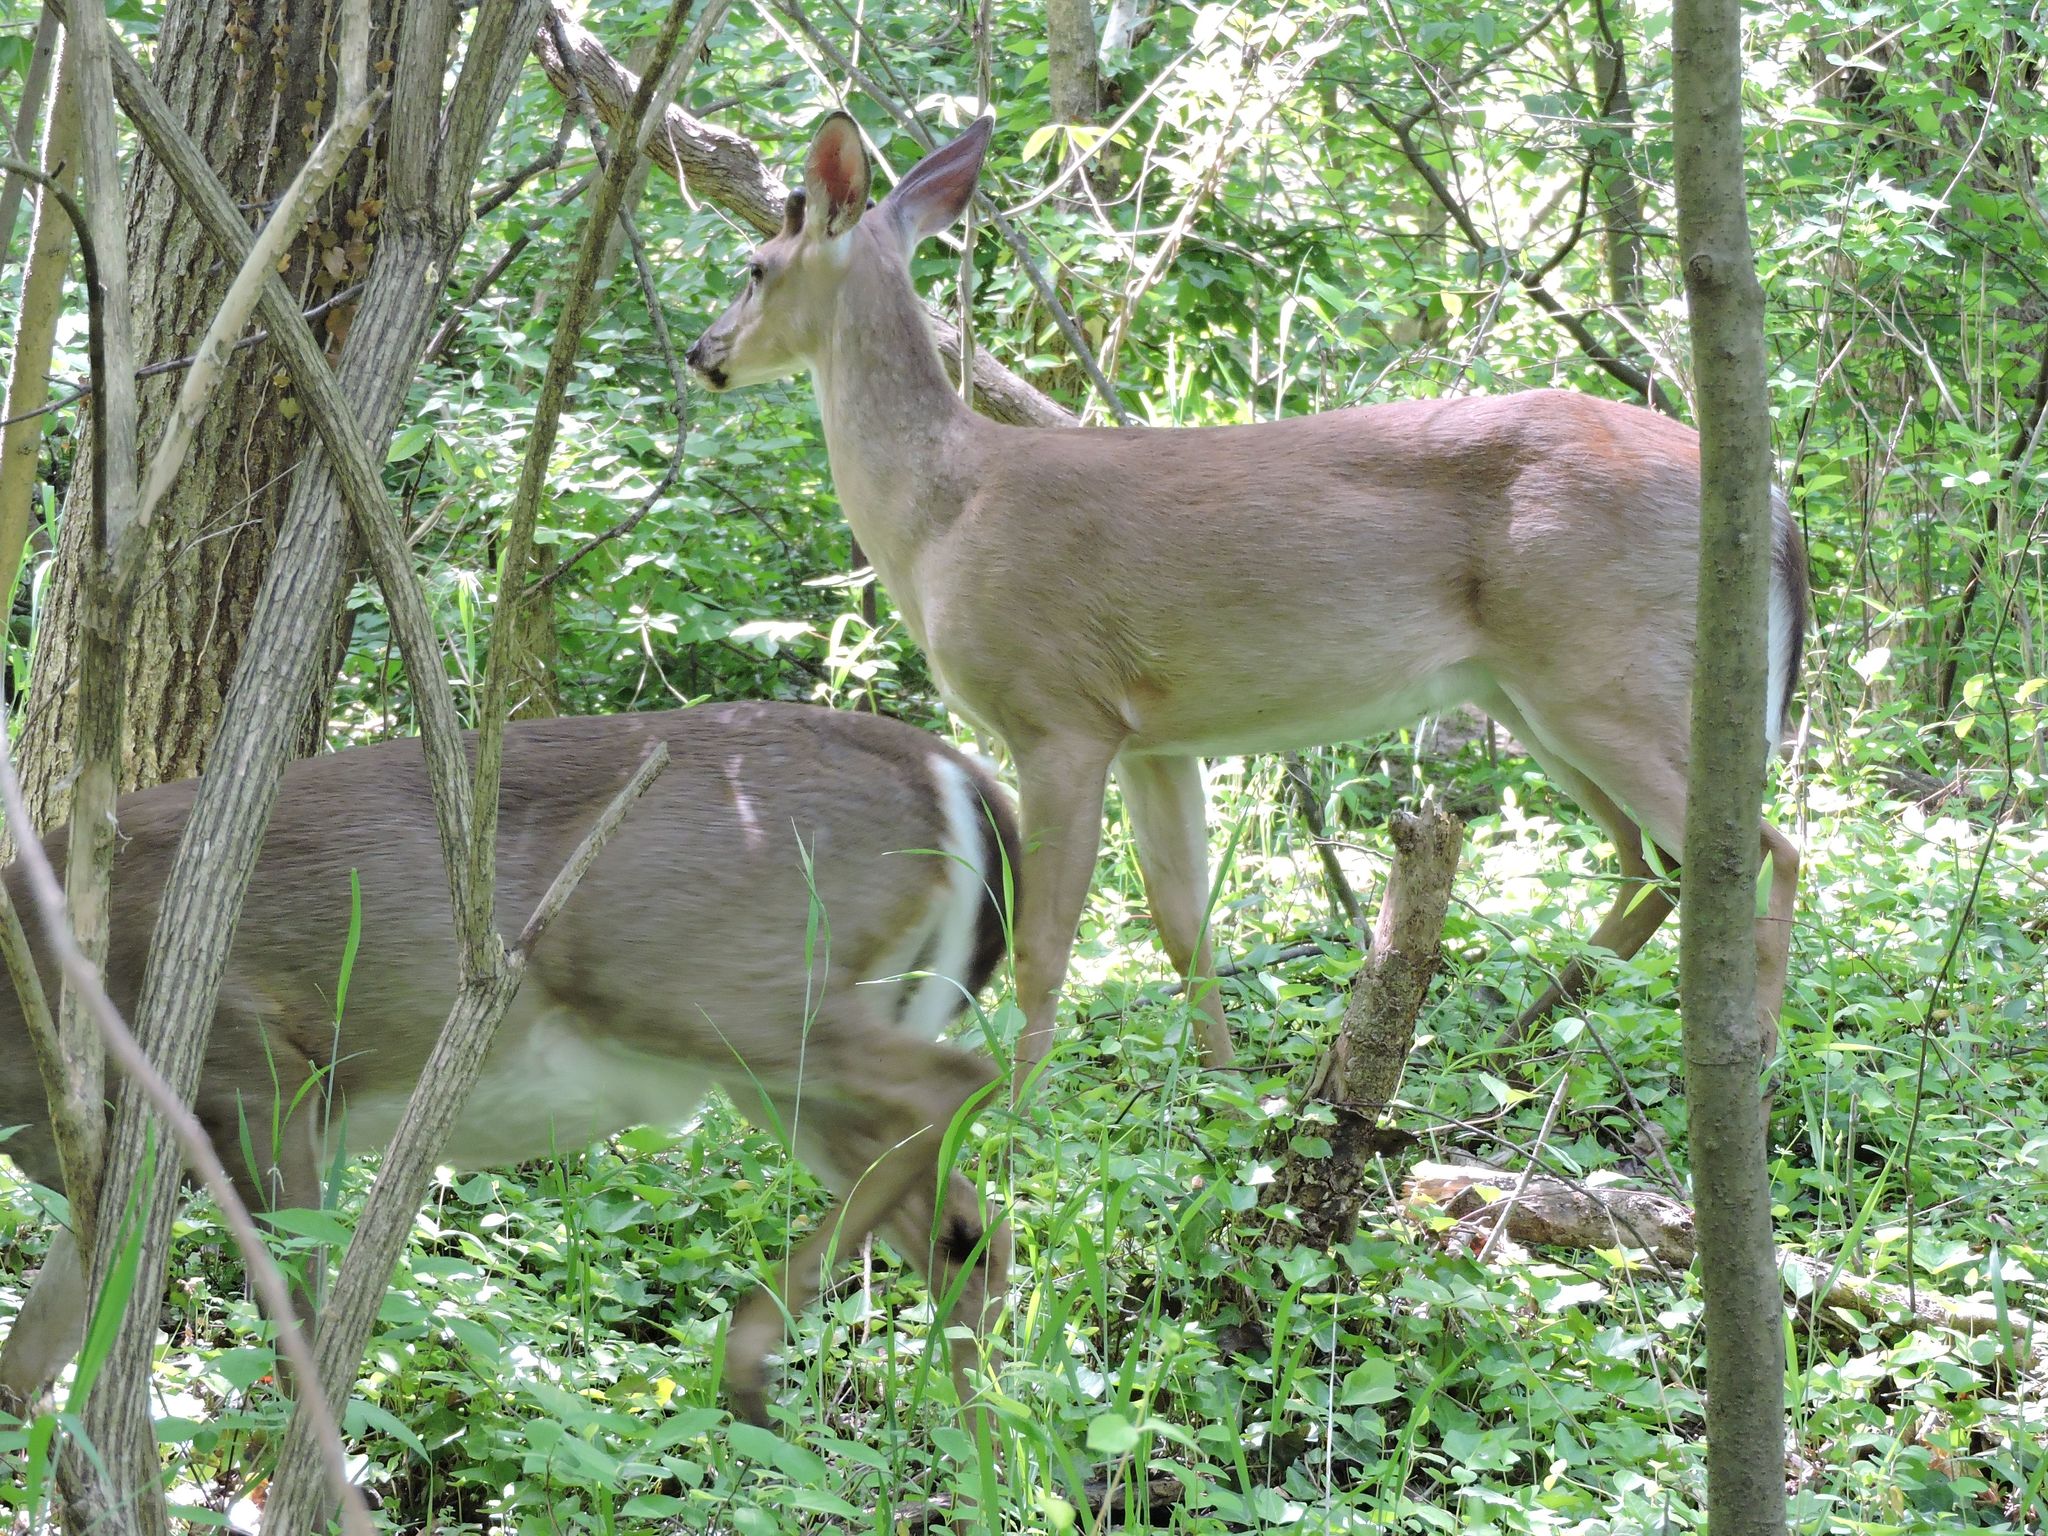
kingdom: Animalia
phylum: Chordata
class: Mammalia
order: Artiodactyla
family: Cervidae
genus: Odocoileus
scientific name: Odocoileus virginianus
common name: White-tailed deer
